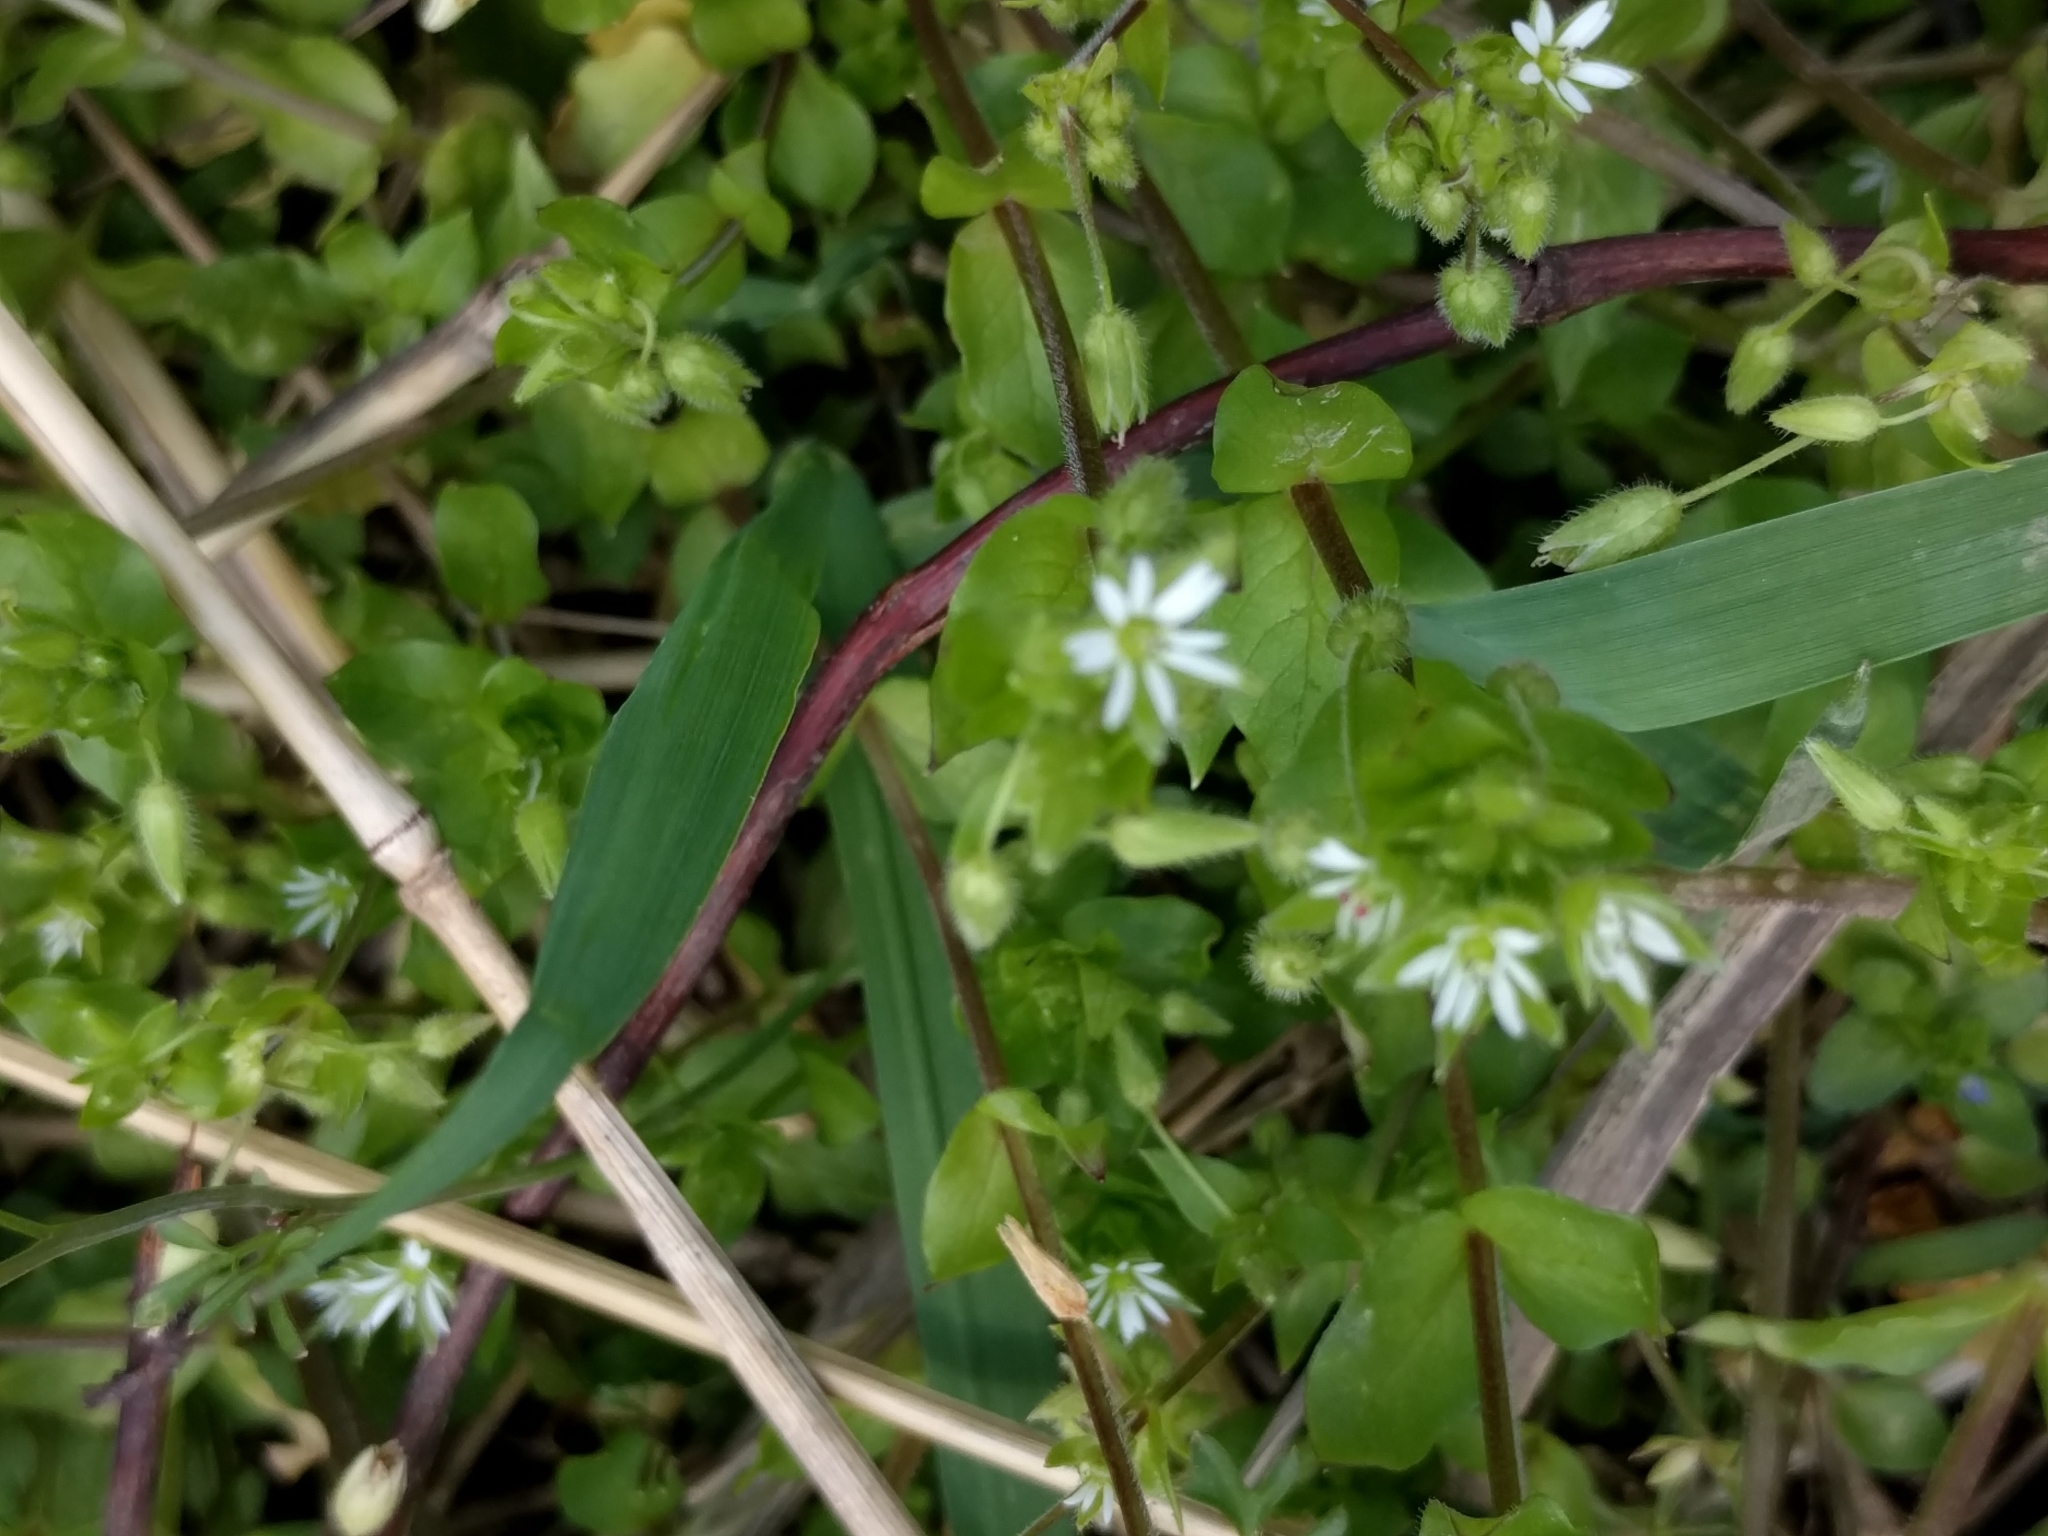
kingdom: Plantae
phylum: Tracheophyta
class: Magnoliopsida
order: Caryophyllales
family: Caryophyllaceae
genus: Stellaria
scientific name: Stellaria media
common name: Common chickweed
